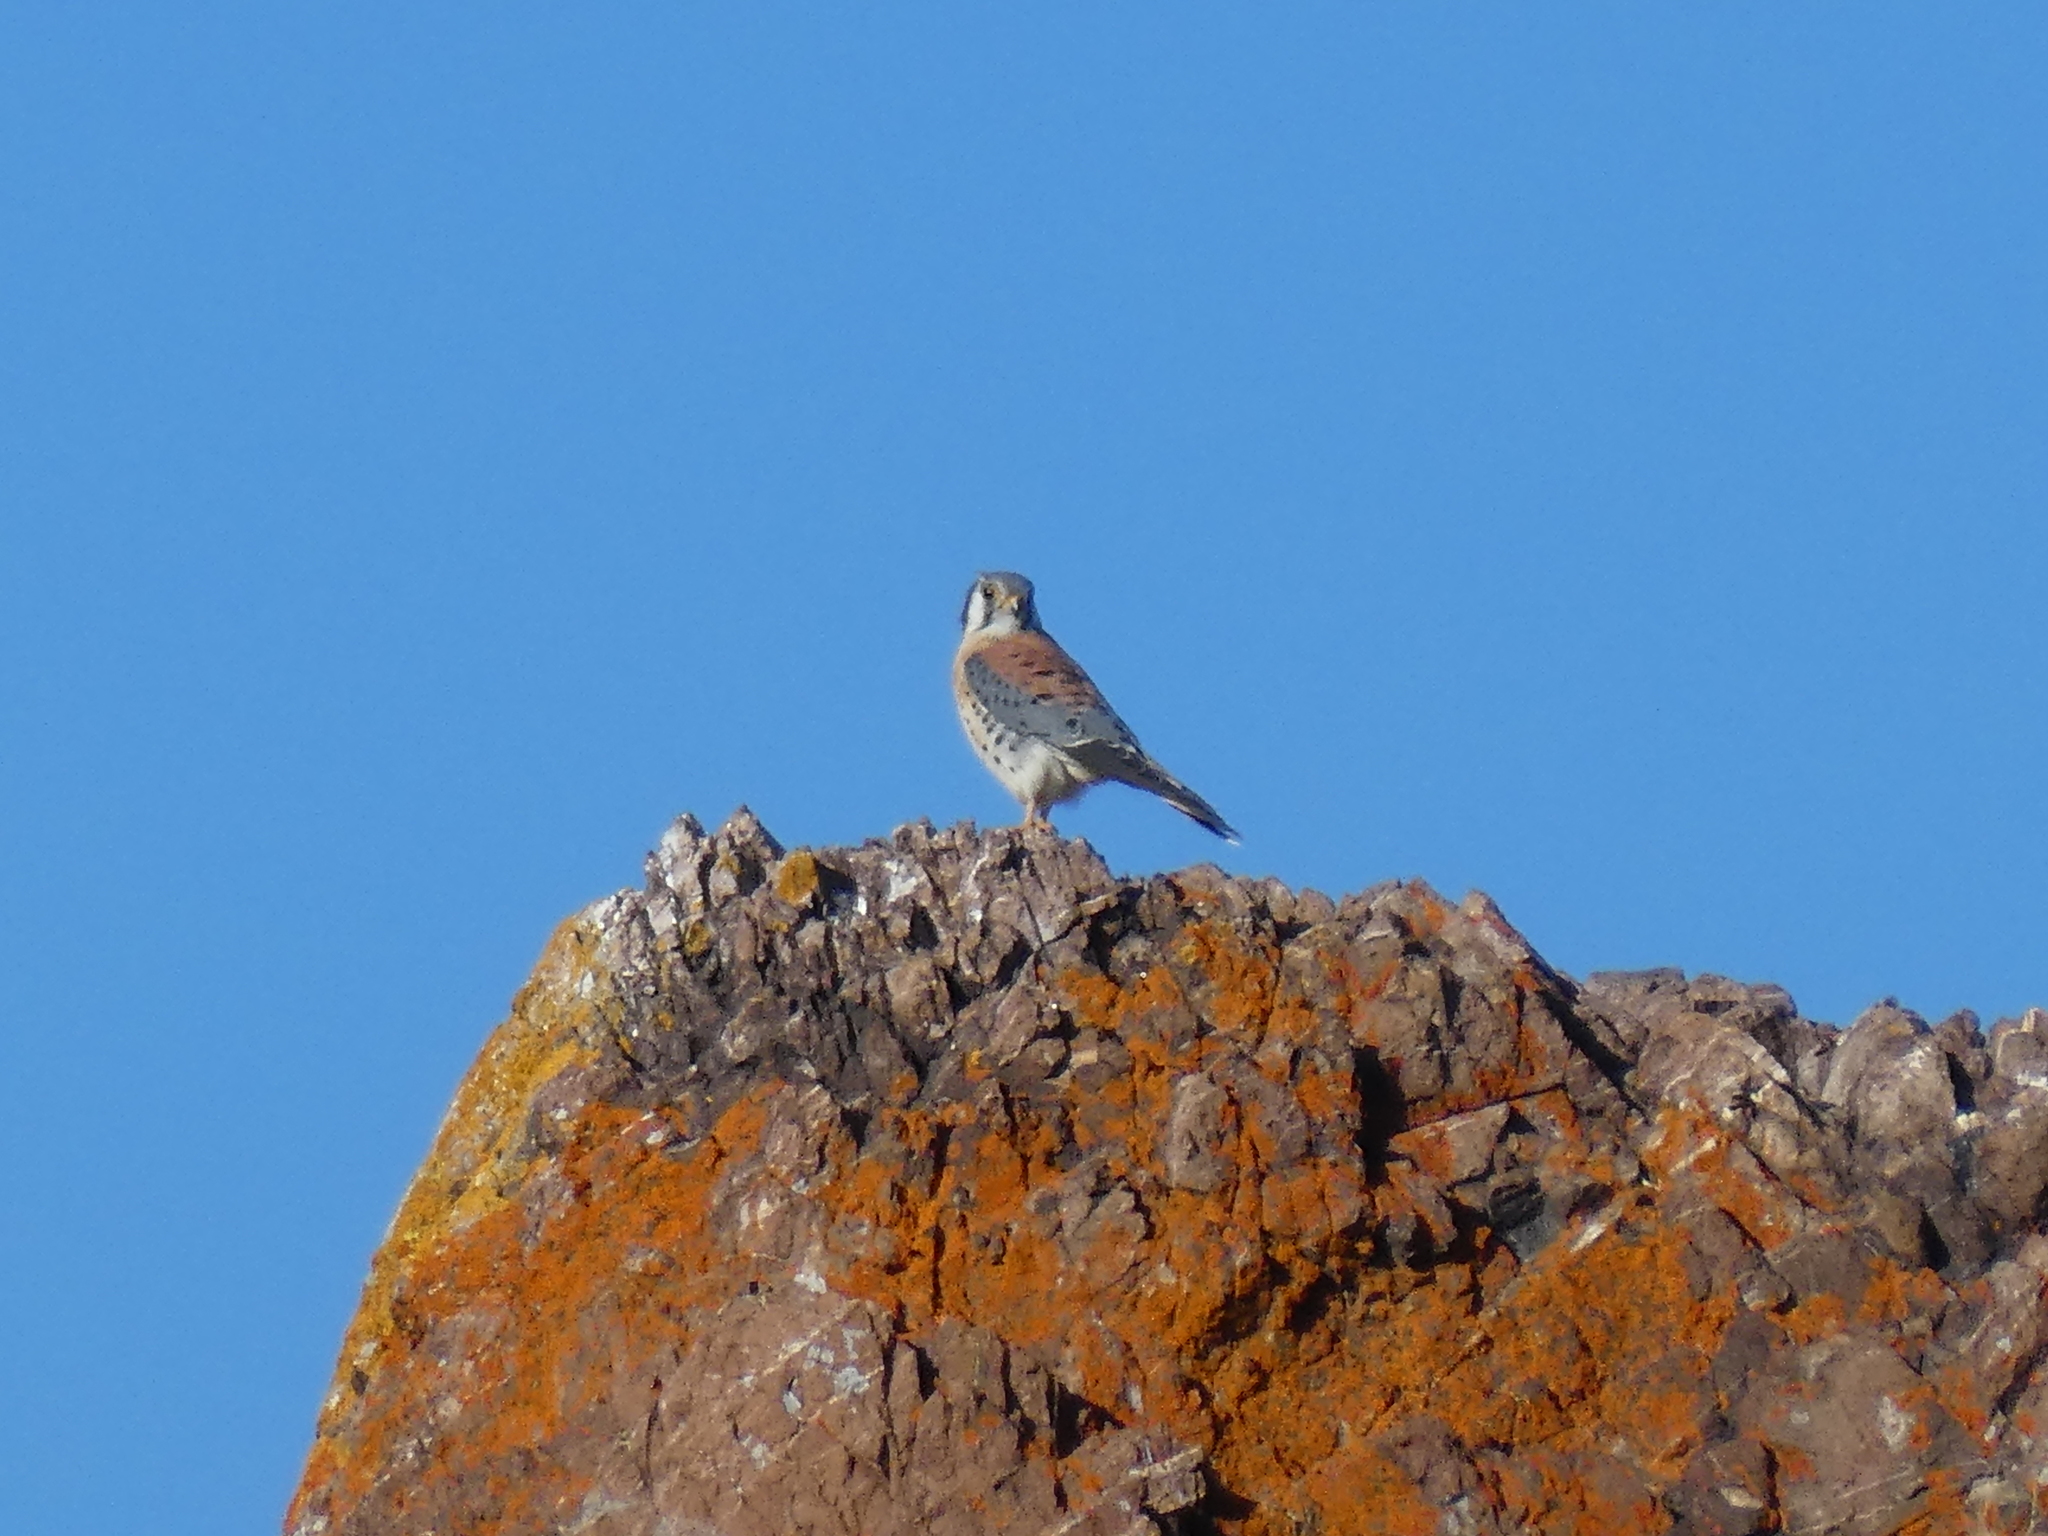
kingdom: Animalia
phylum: Chordata
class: Aves
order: Falconiformes
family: Falconidae
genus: Falco
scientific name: Falco sparverius
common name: American kestrel
